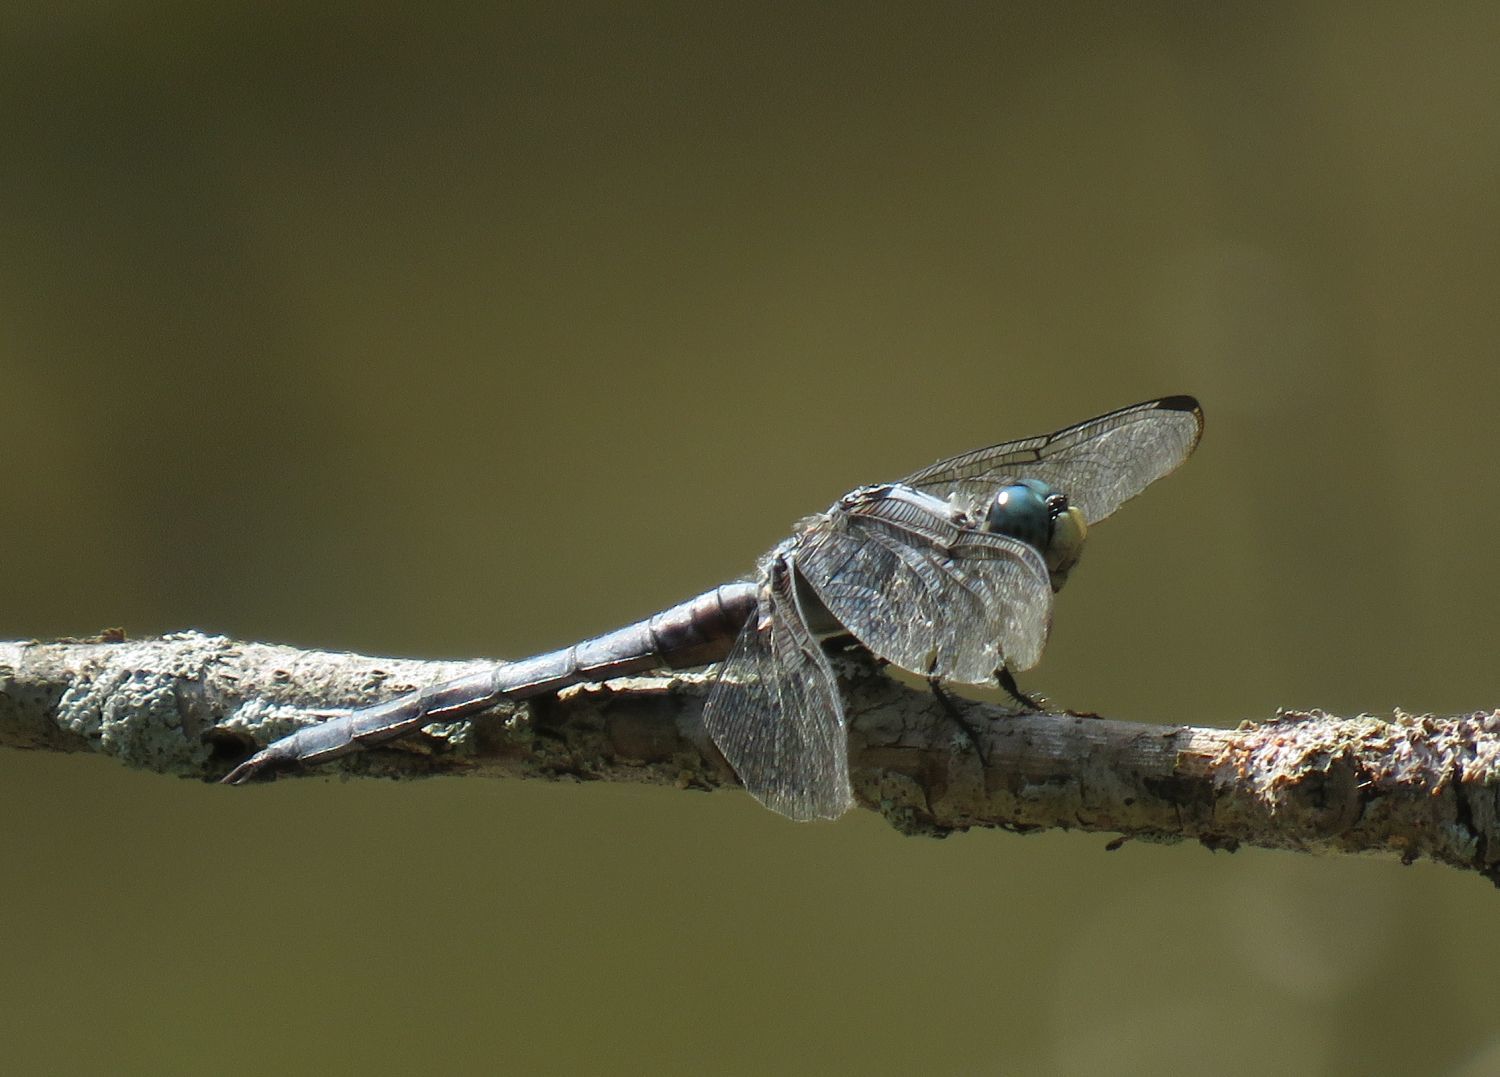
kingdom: Animalia
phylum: Arthropoda
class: Insecta
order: Odonata
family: Libellulidae
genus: Libellula
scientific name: Libellula vibrans
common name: Great blue skimmer
